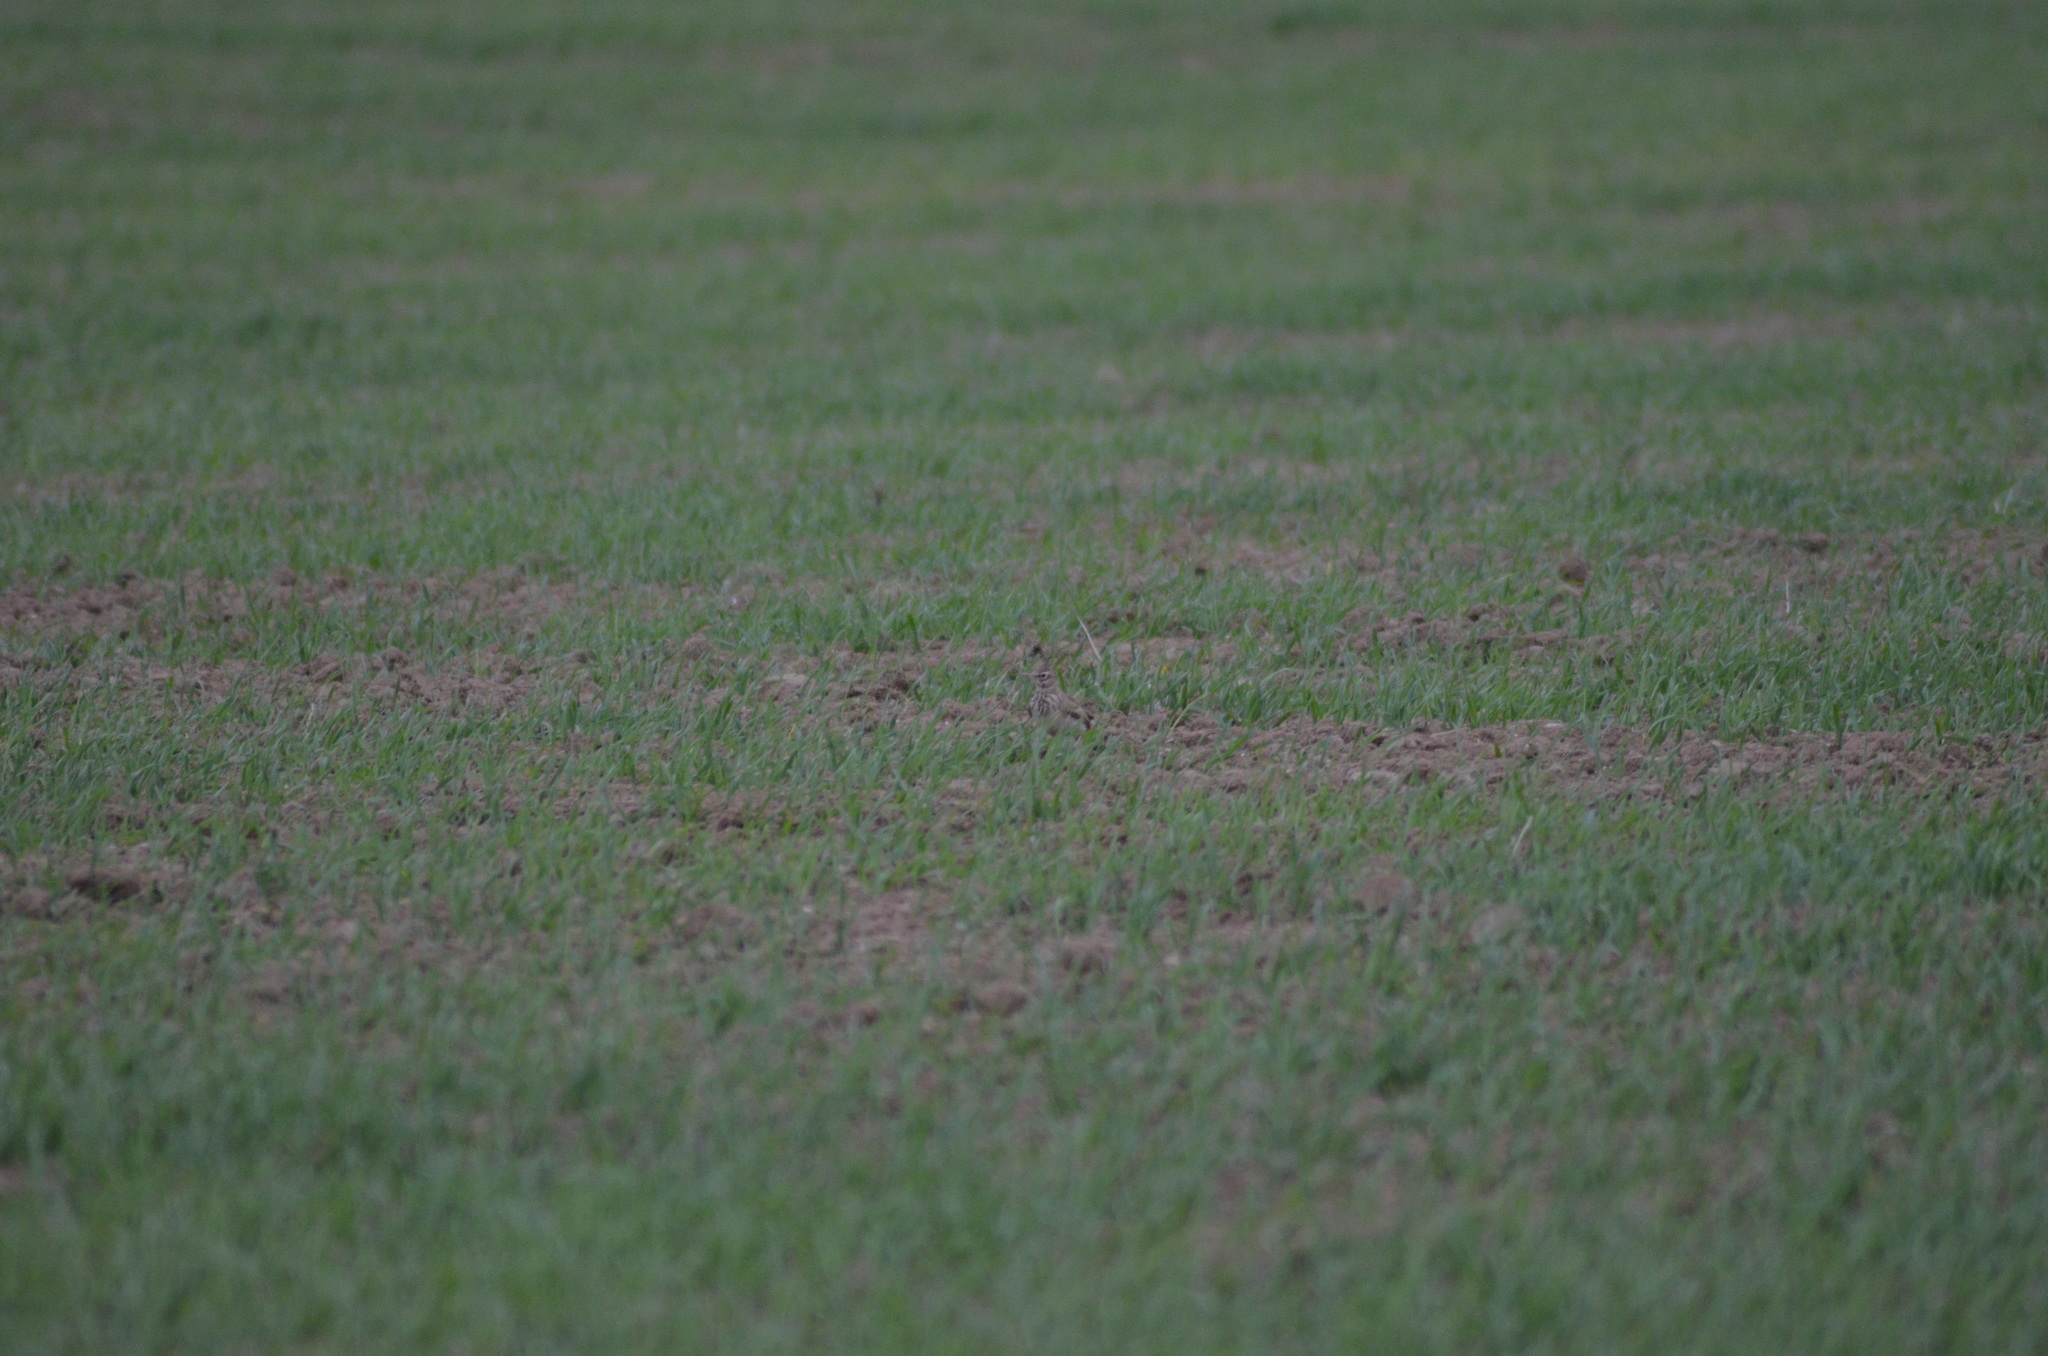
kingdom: Animalia
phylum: Chordata
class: Aves
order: Passeriformes
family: Alaudidae
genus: Galerida
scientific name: Galerida cristata
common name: Crested lark
